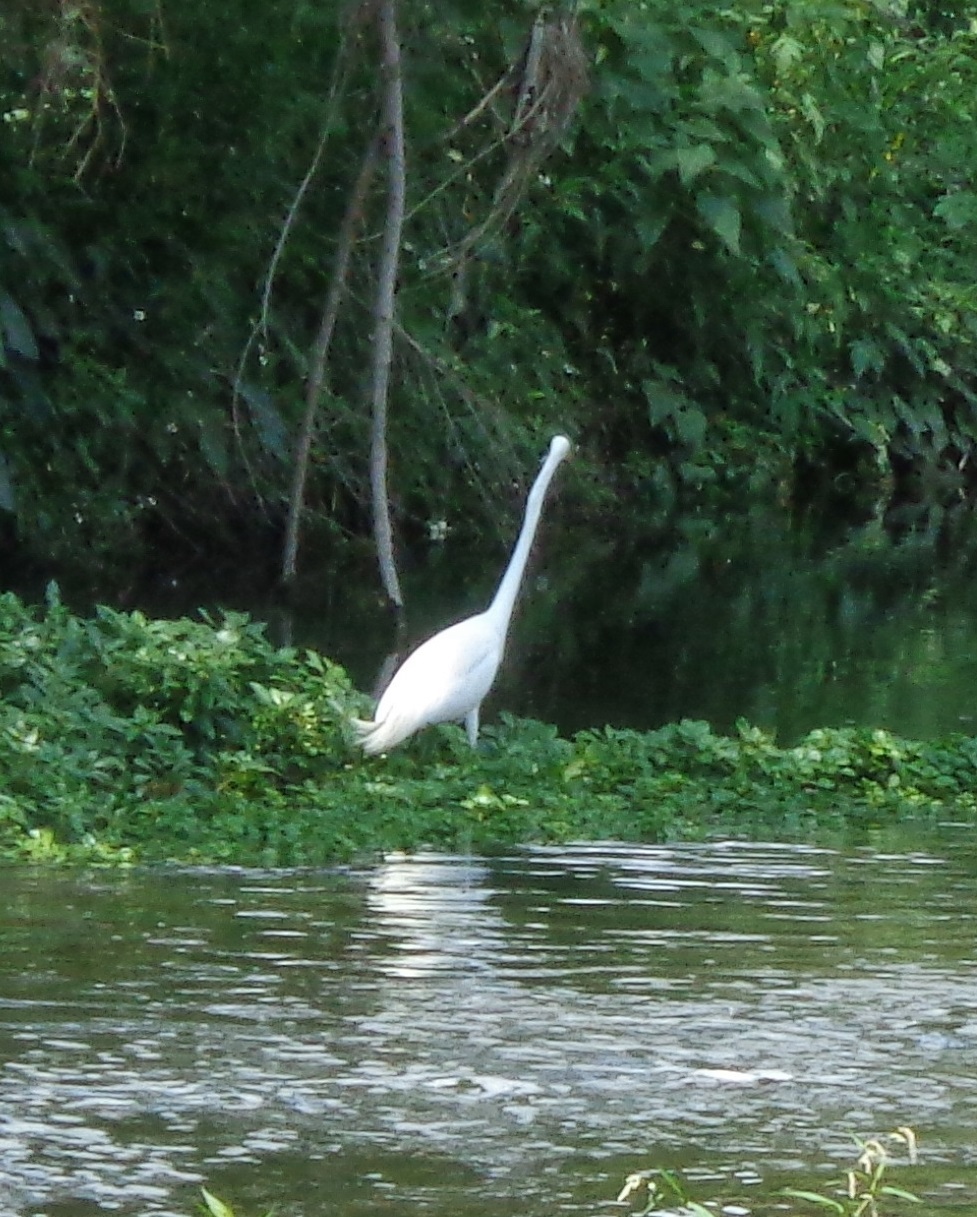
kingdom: Animalia
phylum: Chordata
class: Aves
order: Pelecaniformes
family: Ardeidae
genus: Ardea
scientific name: Ardea alba
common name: Great egret
